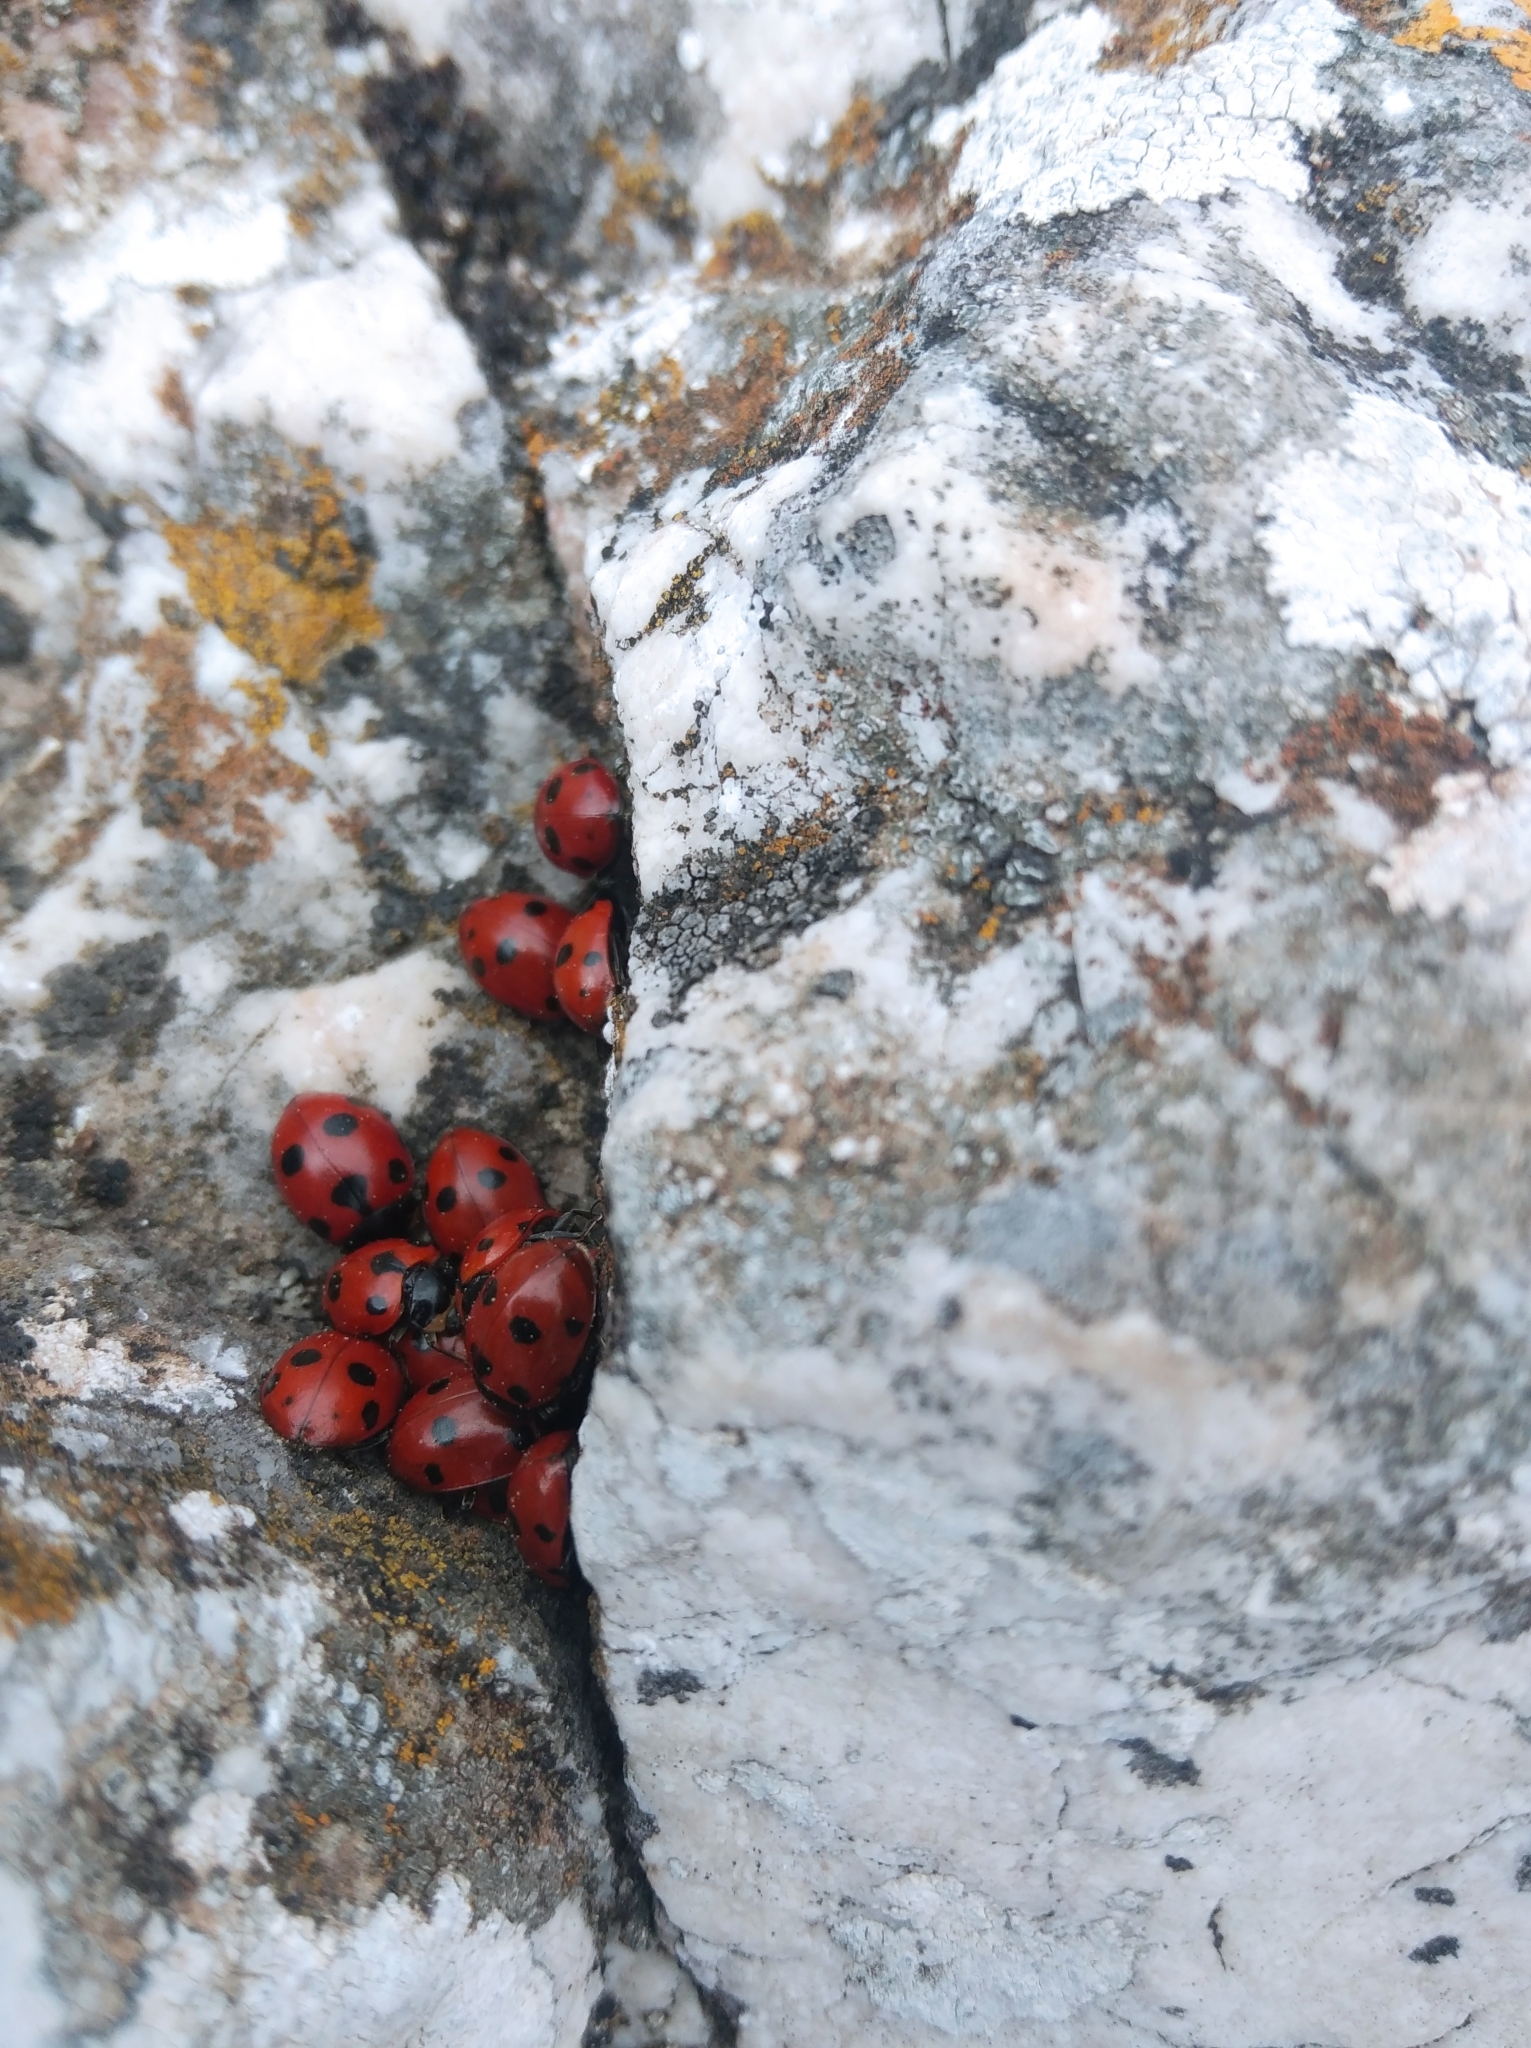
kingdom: Animalia
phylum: Arthropoda
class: Insecta
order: Coleoptera
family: Coccinellidae
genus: Ceratomegilla
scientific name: Ceratomegilla undecimnotata
